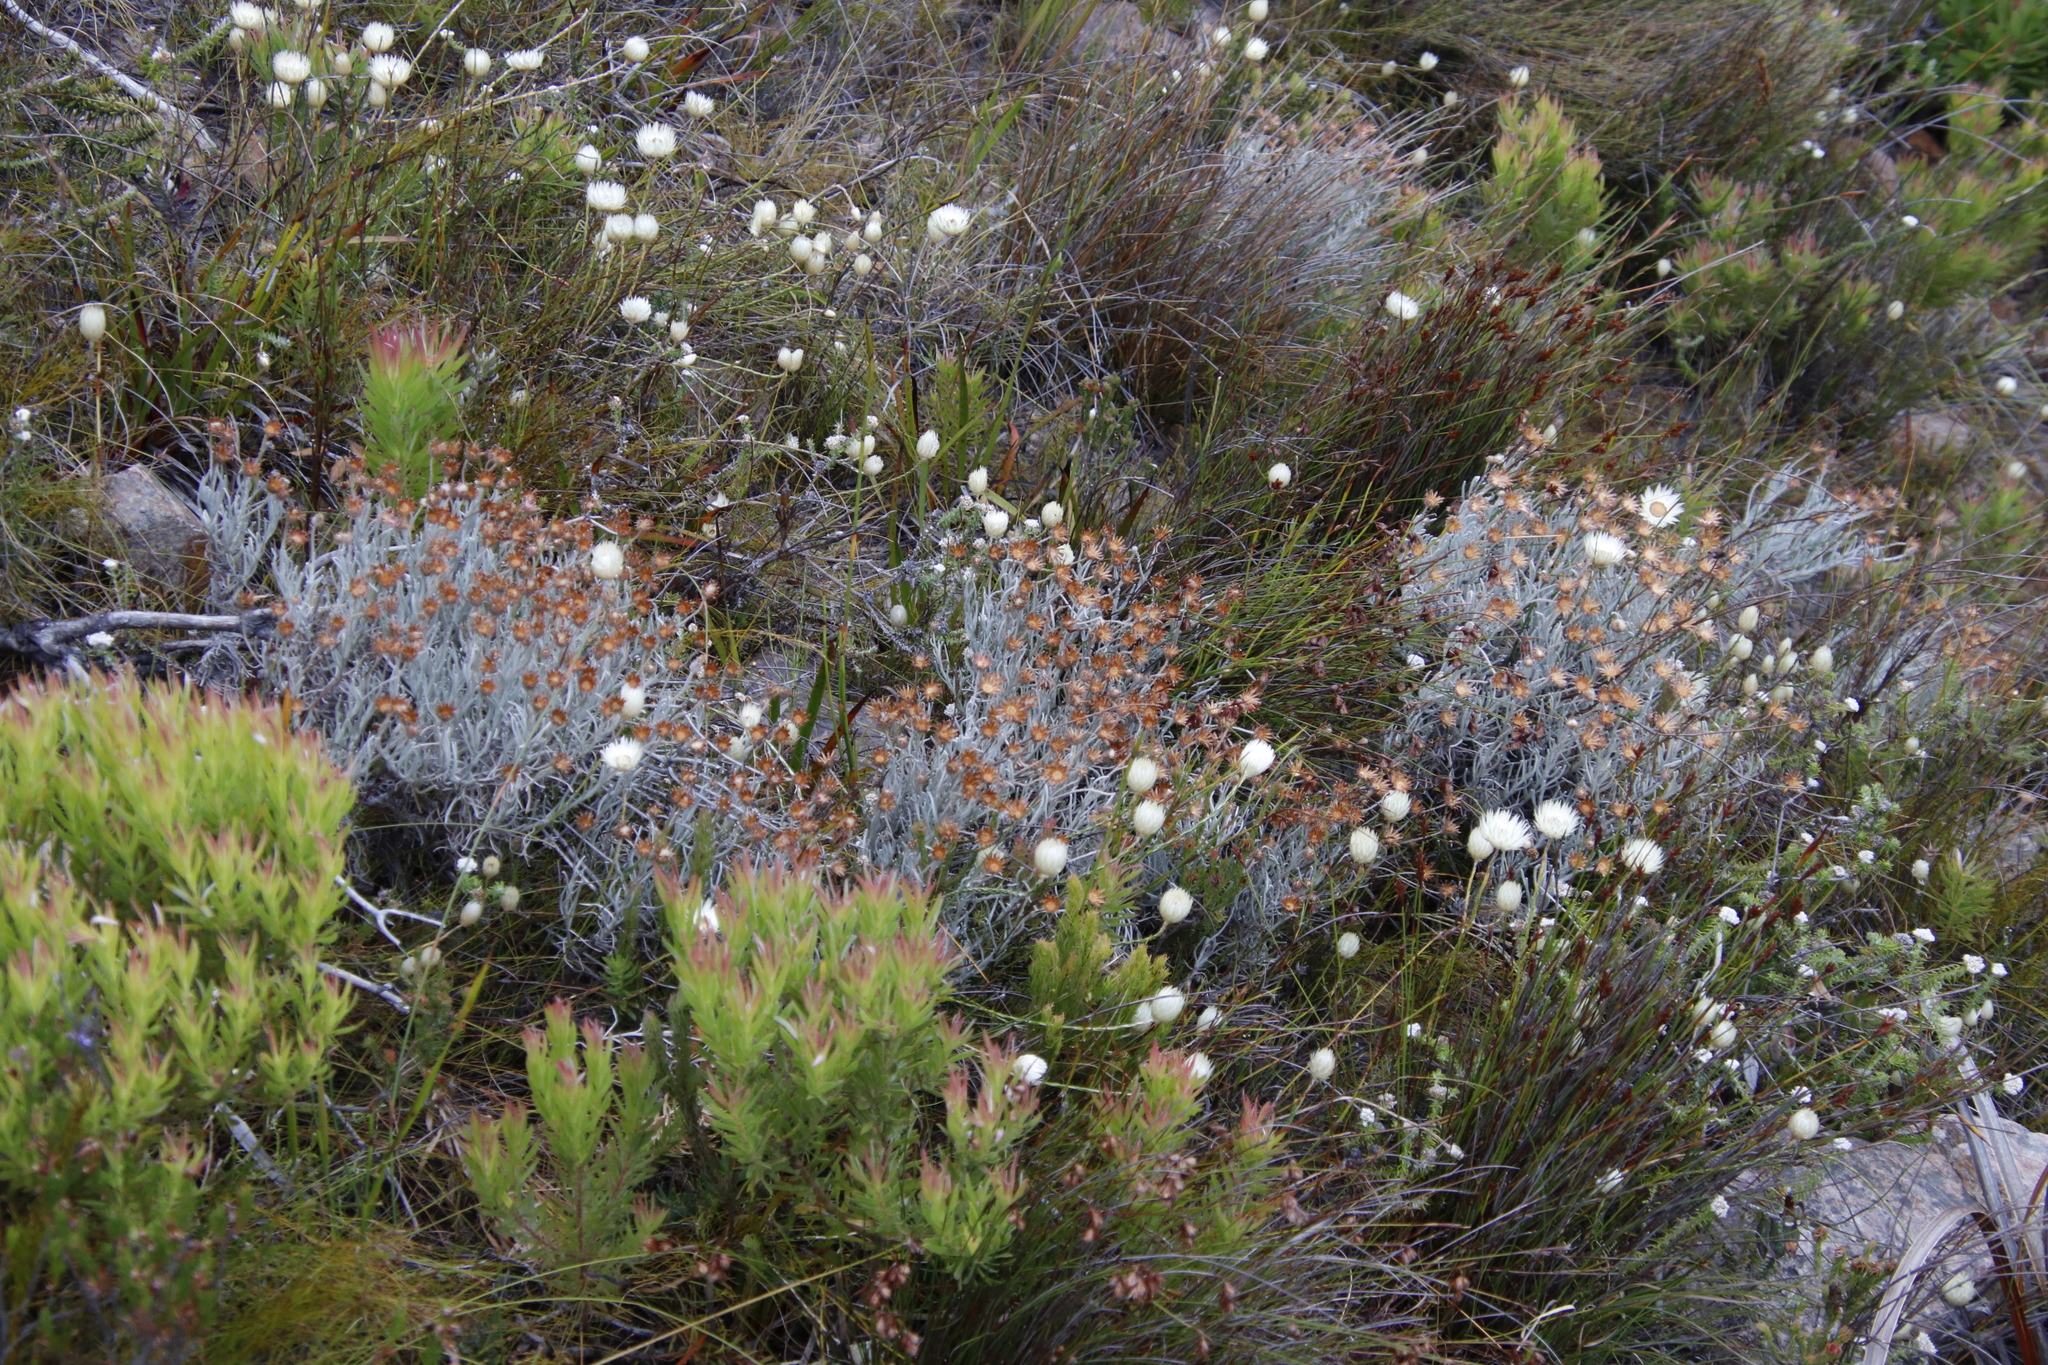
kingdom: Plantae
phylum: Tracheophyta
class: Magnoliopsida
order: Asterales
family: Asteraceae
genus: Syncarpha
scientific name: Syncarpha gnaphaloides
